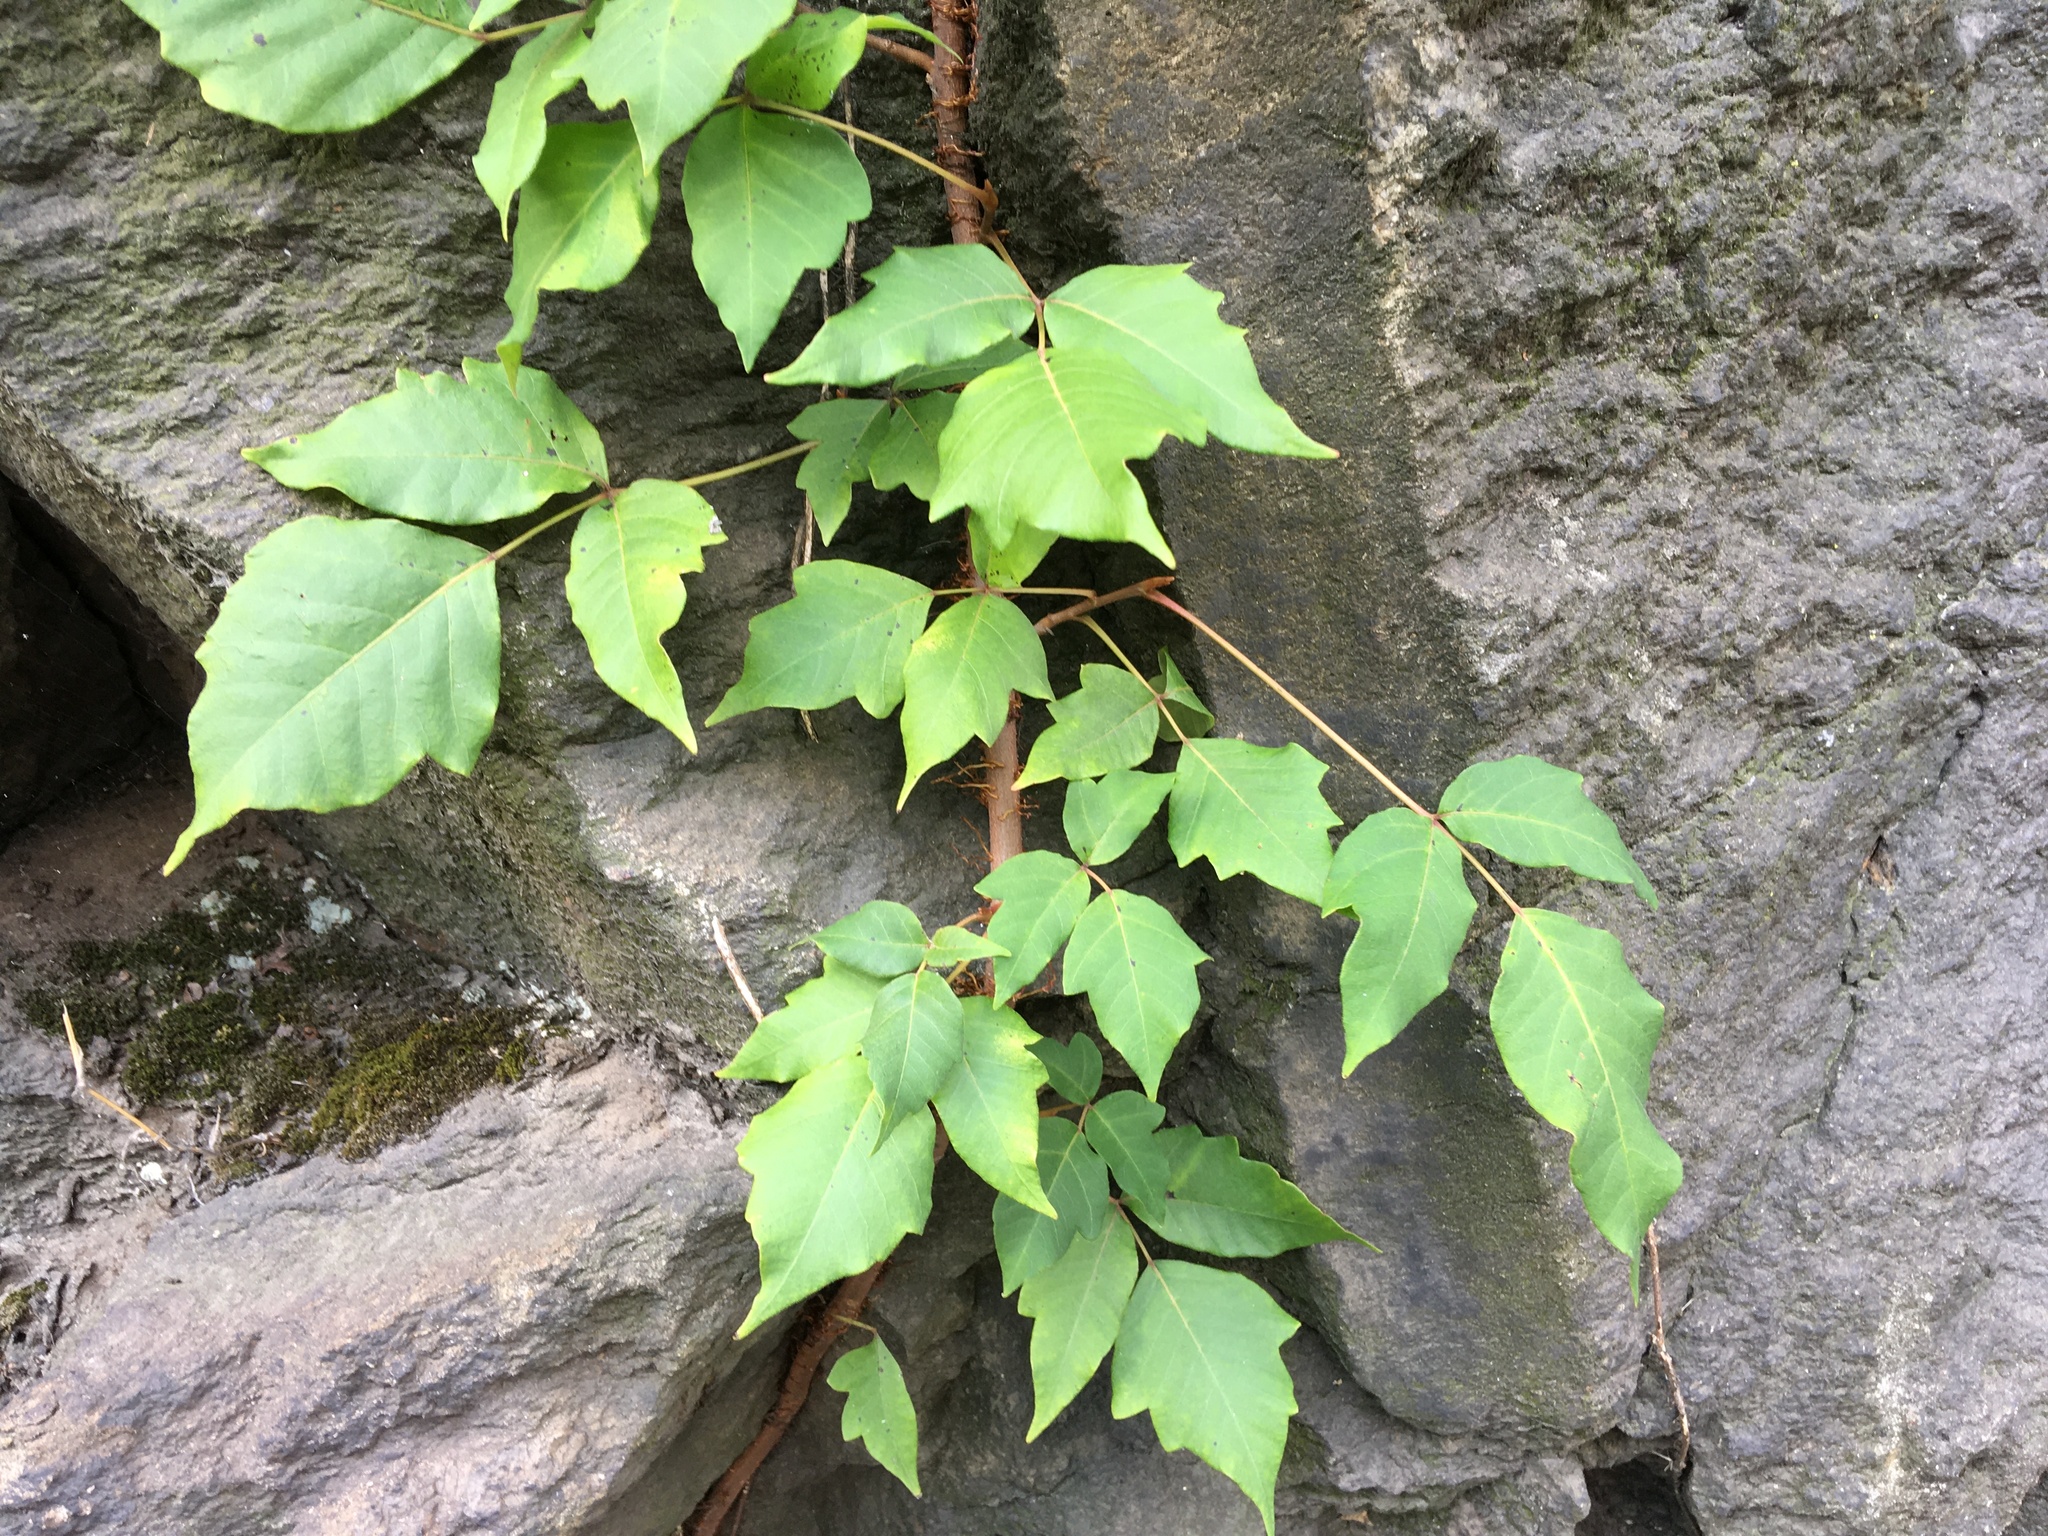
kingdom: Plantae
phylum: Tracheophyta
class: Magnoliopsida
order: Sapindales
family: Anacardiaceae
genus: Toxicodendron
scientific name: Toxicodendron radicans
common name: Poison ivy
